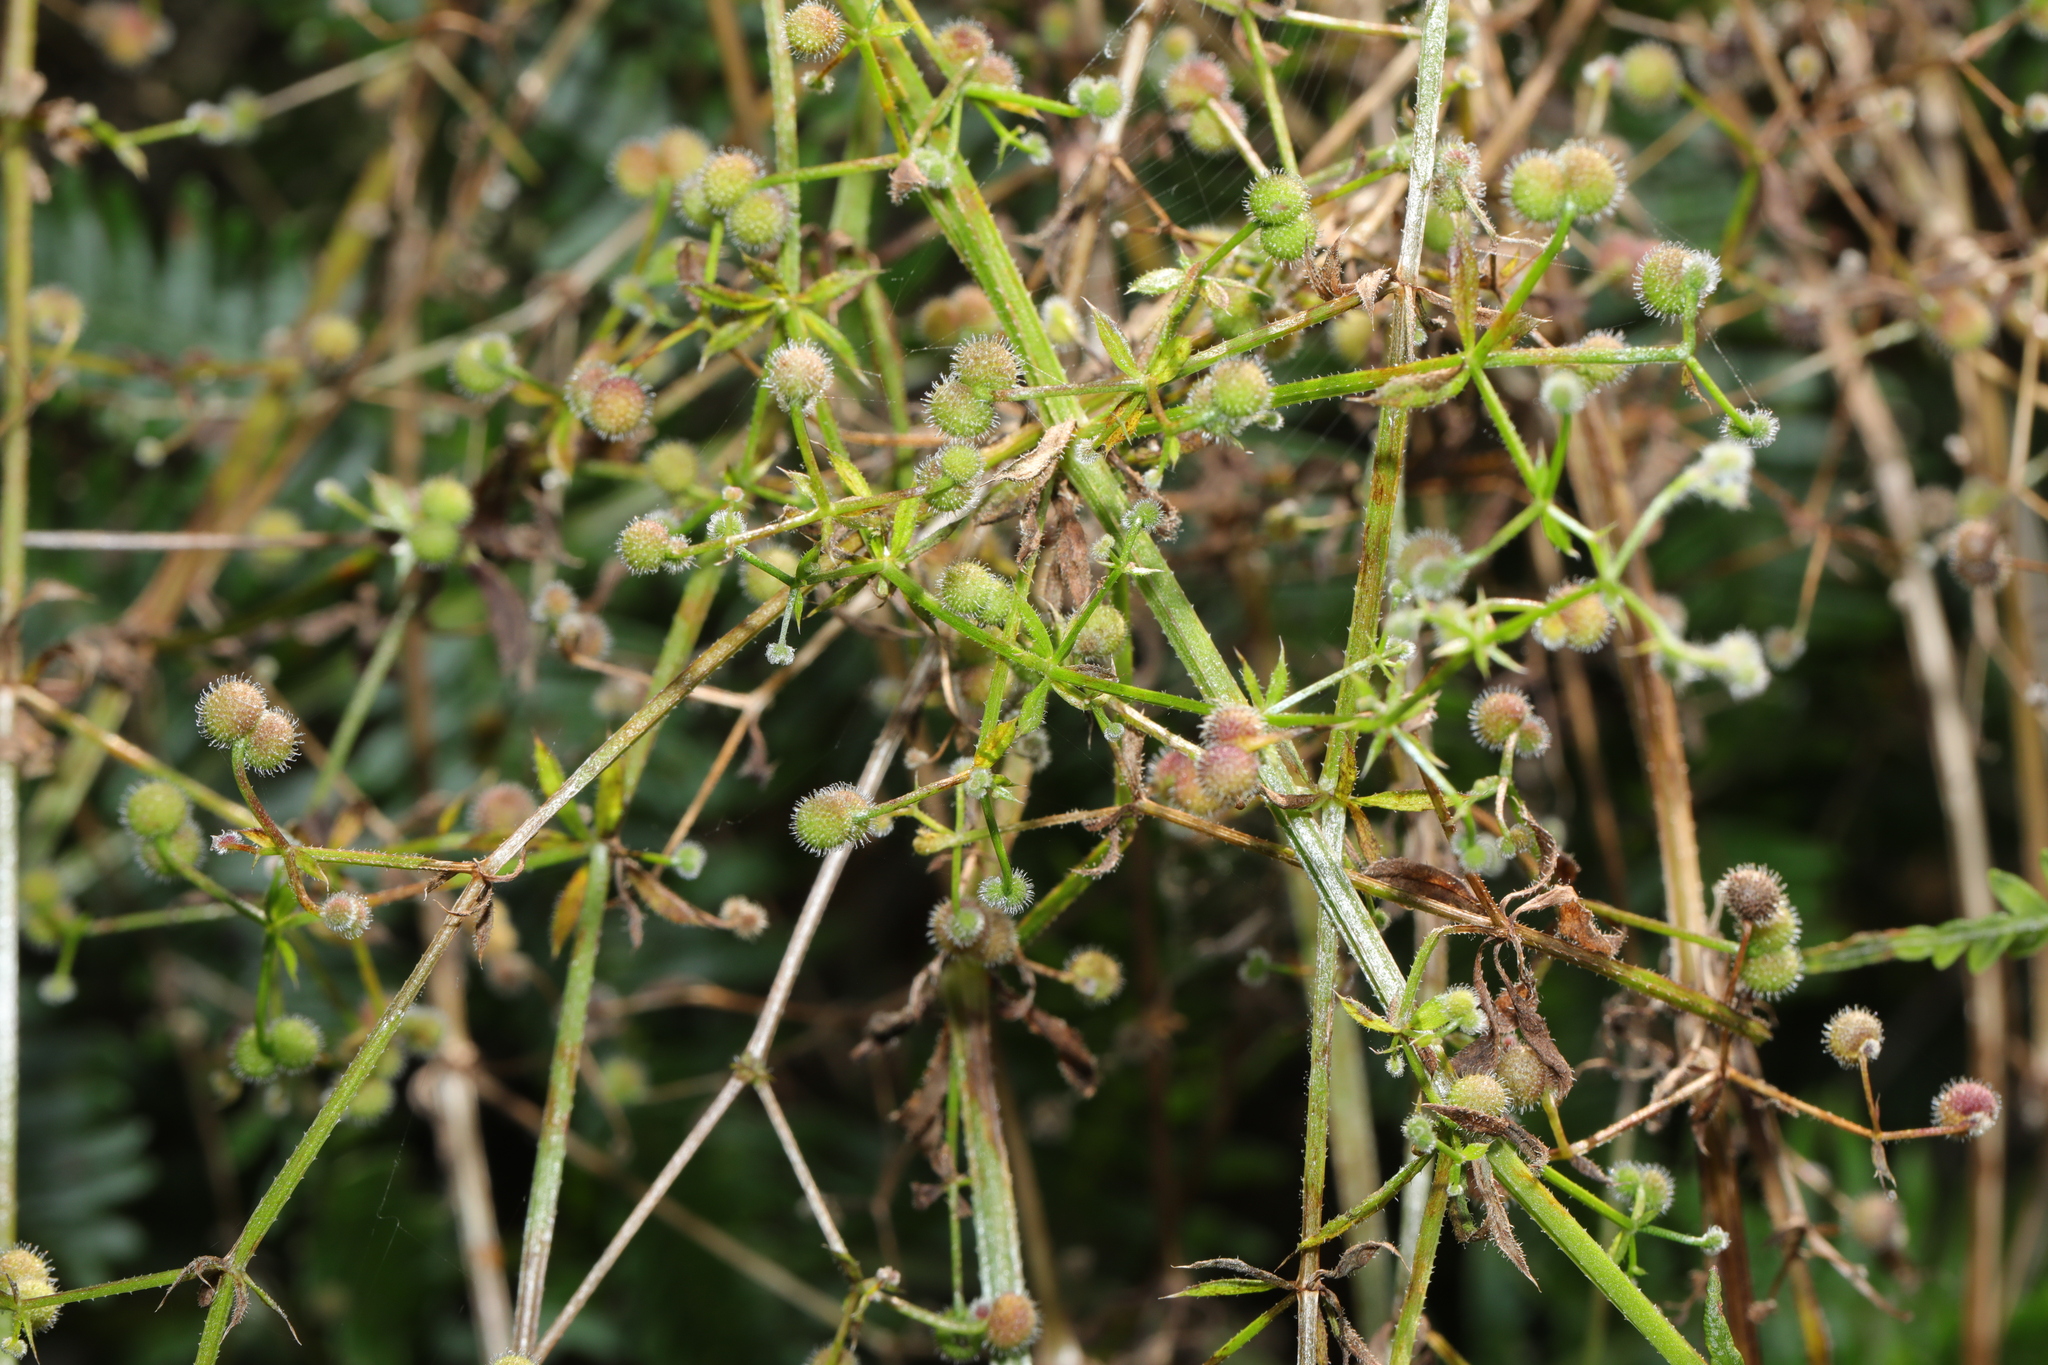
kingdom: Plantae
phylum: Tracheophyta
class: Magnoliopsida
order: Gentianales
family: Rubiaceae
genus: Galium
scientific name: Galium aparine
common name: Cleavers
